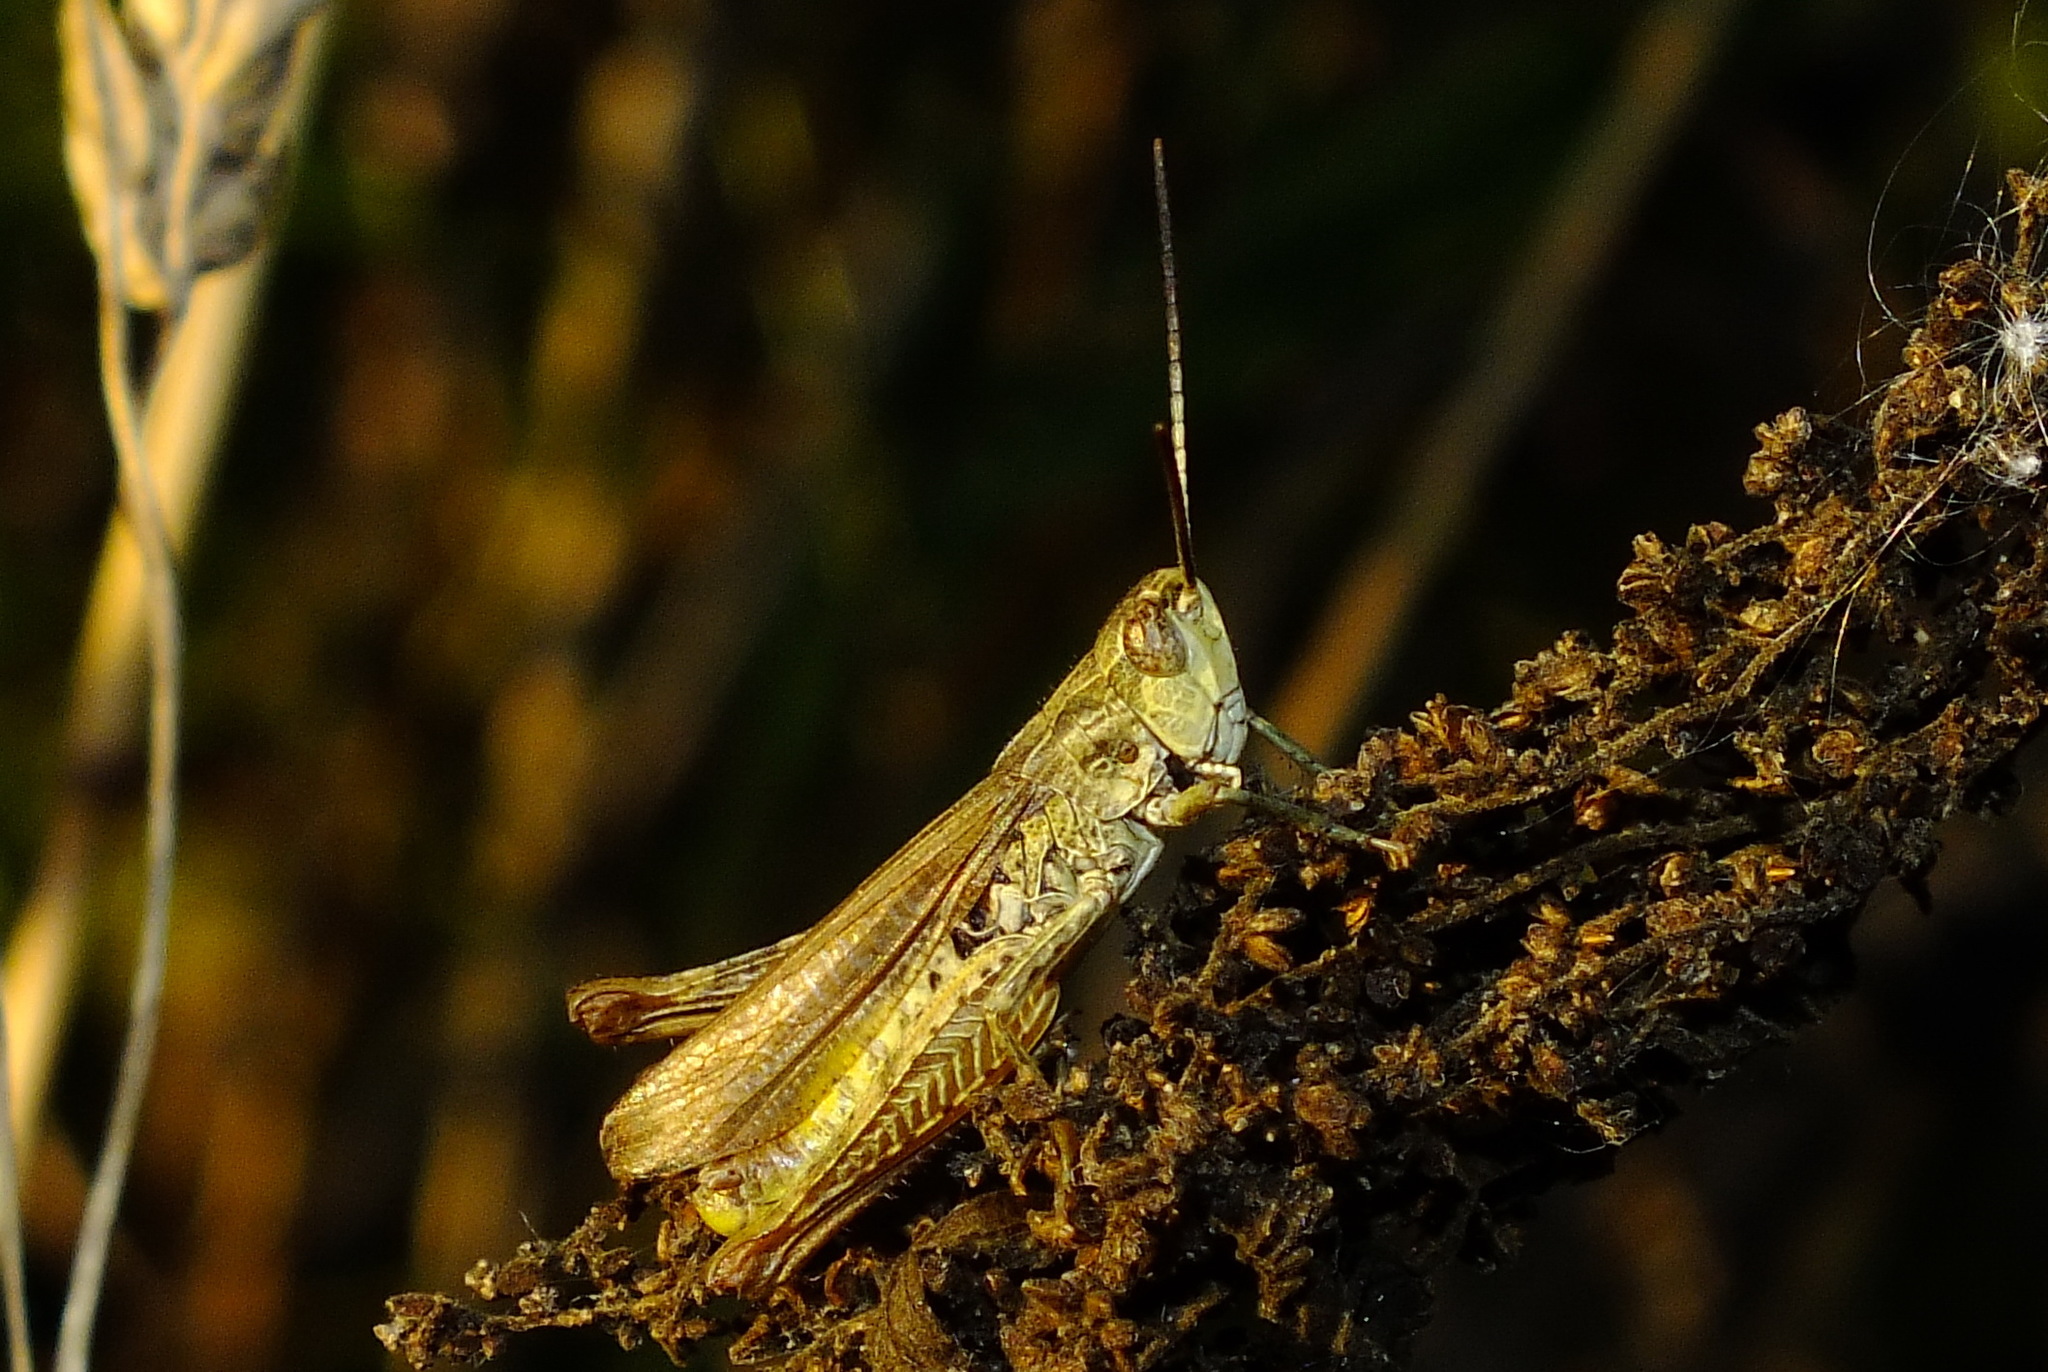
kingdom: Animalia
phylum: Arthropoda
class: Insecta
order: Orthoptera
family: Acrididae
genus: Chorthippus
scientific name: Chorthippus apricarius
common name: Upland field grasshopper
